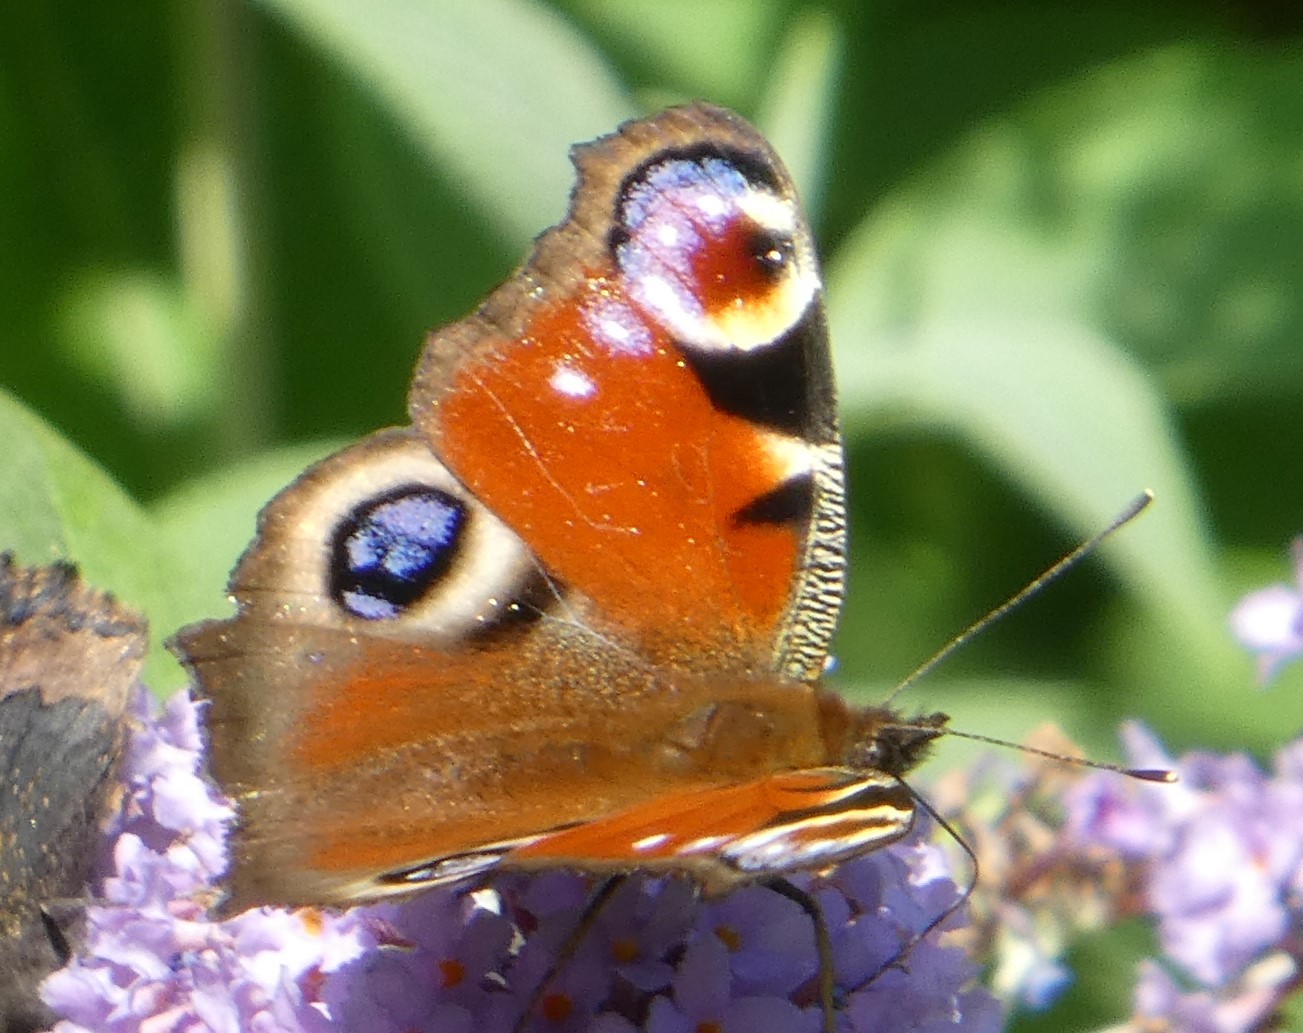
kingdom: Animalia
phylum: Arthropoda
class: Insecta
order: Lepidoptera
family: Nymphalidae
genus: Aglais
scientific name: Aglais io
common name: Peacock
